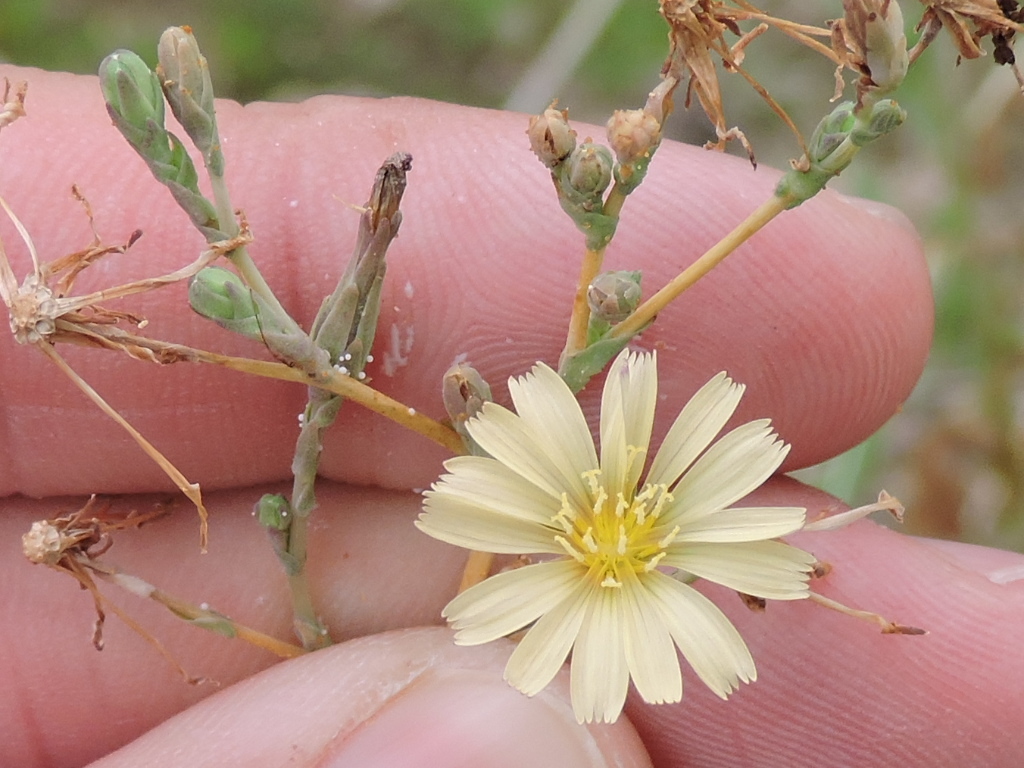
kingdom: Plantae
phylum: Tracheophyta
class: Magnoliopsida
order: Asterales
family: Asteraceae
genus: Lactuca
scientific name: Lactuca serriola
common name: Prickly lettuce
